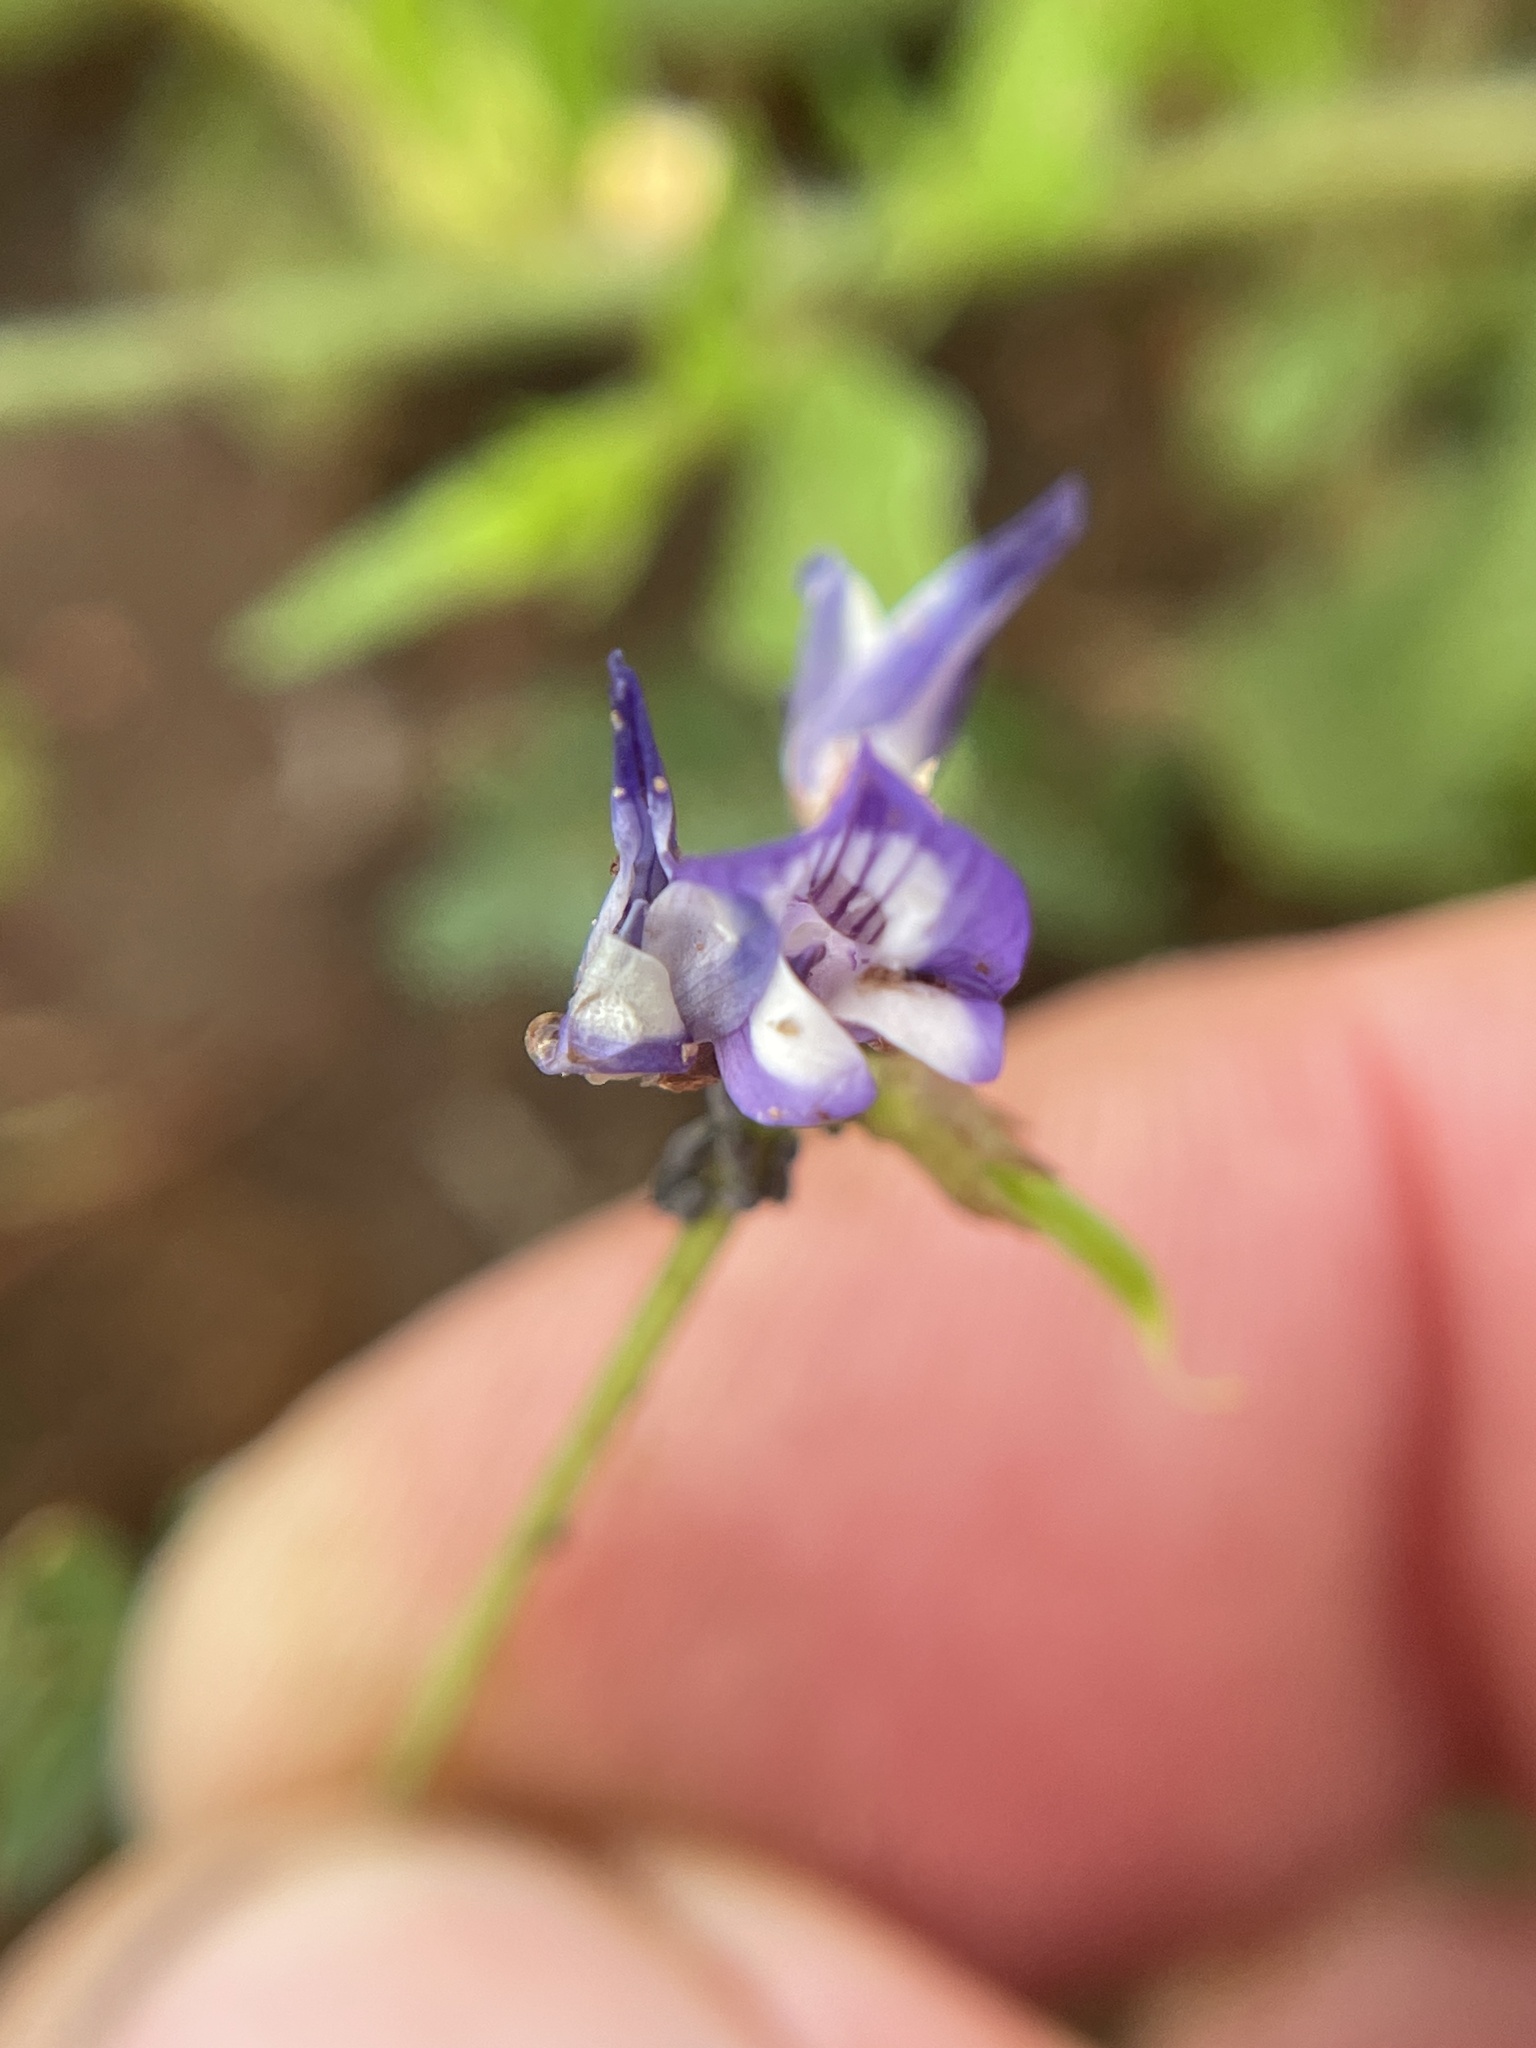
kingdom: Plantae
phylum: Tracheophyta
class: Magnoliopsida
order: Fabales
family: Fabaceae
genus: Astragalus
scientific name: Astragalus leptocarpus
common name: Bodkin milk-vetch
